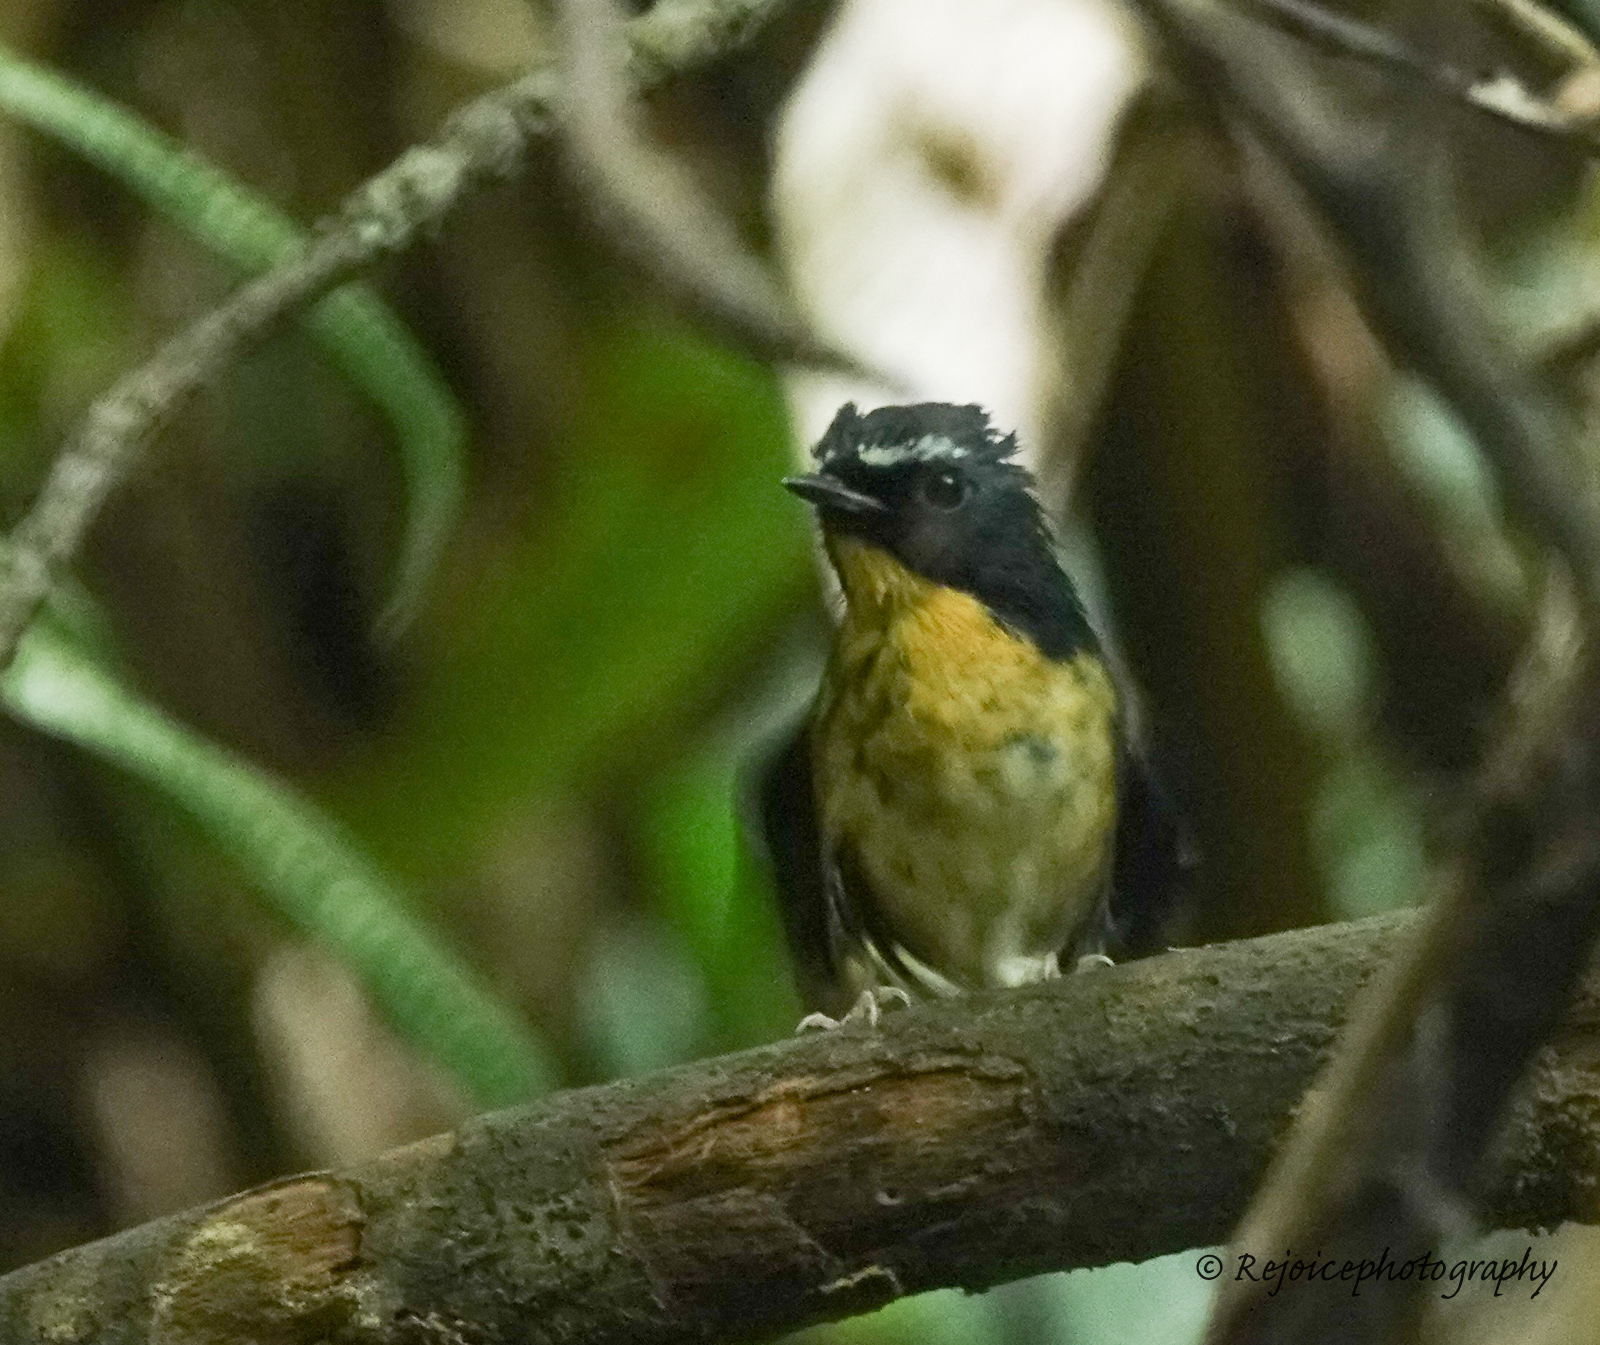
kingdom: Animalia
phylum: Chordata
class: Aves
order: Passeriformes
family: Muscicapidae
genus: Ficedula
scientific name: Ficedula hyperythra
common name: Snowy-browed flycatcher
